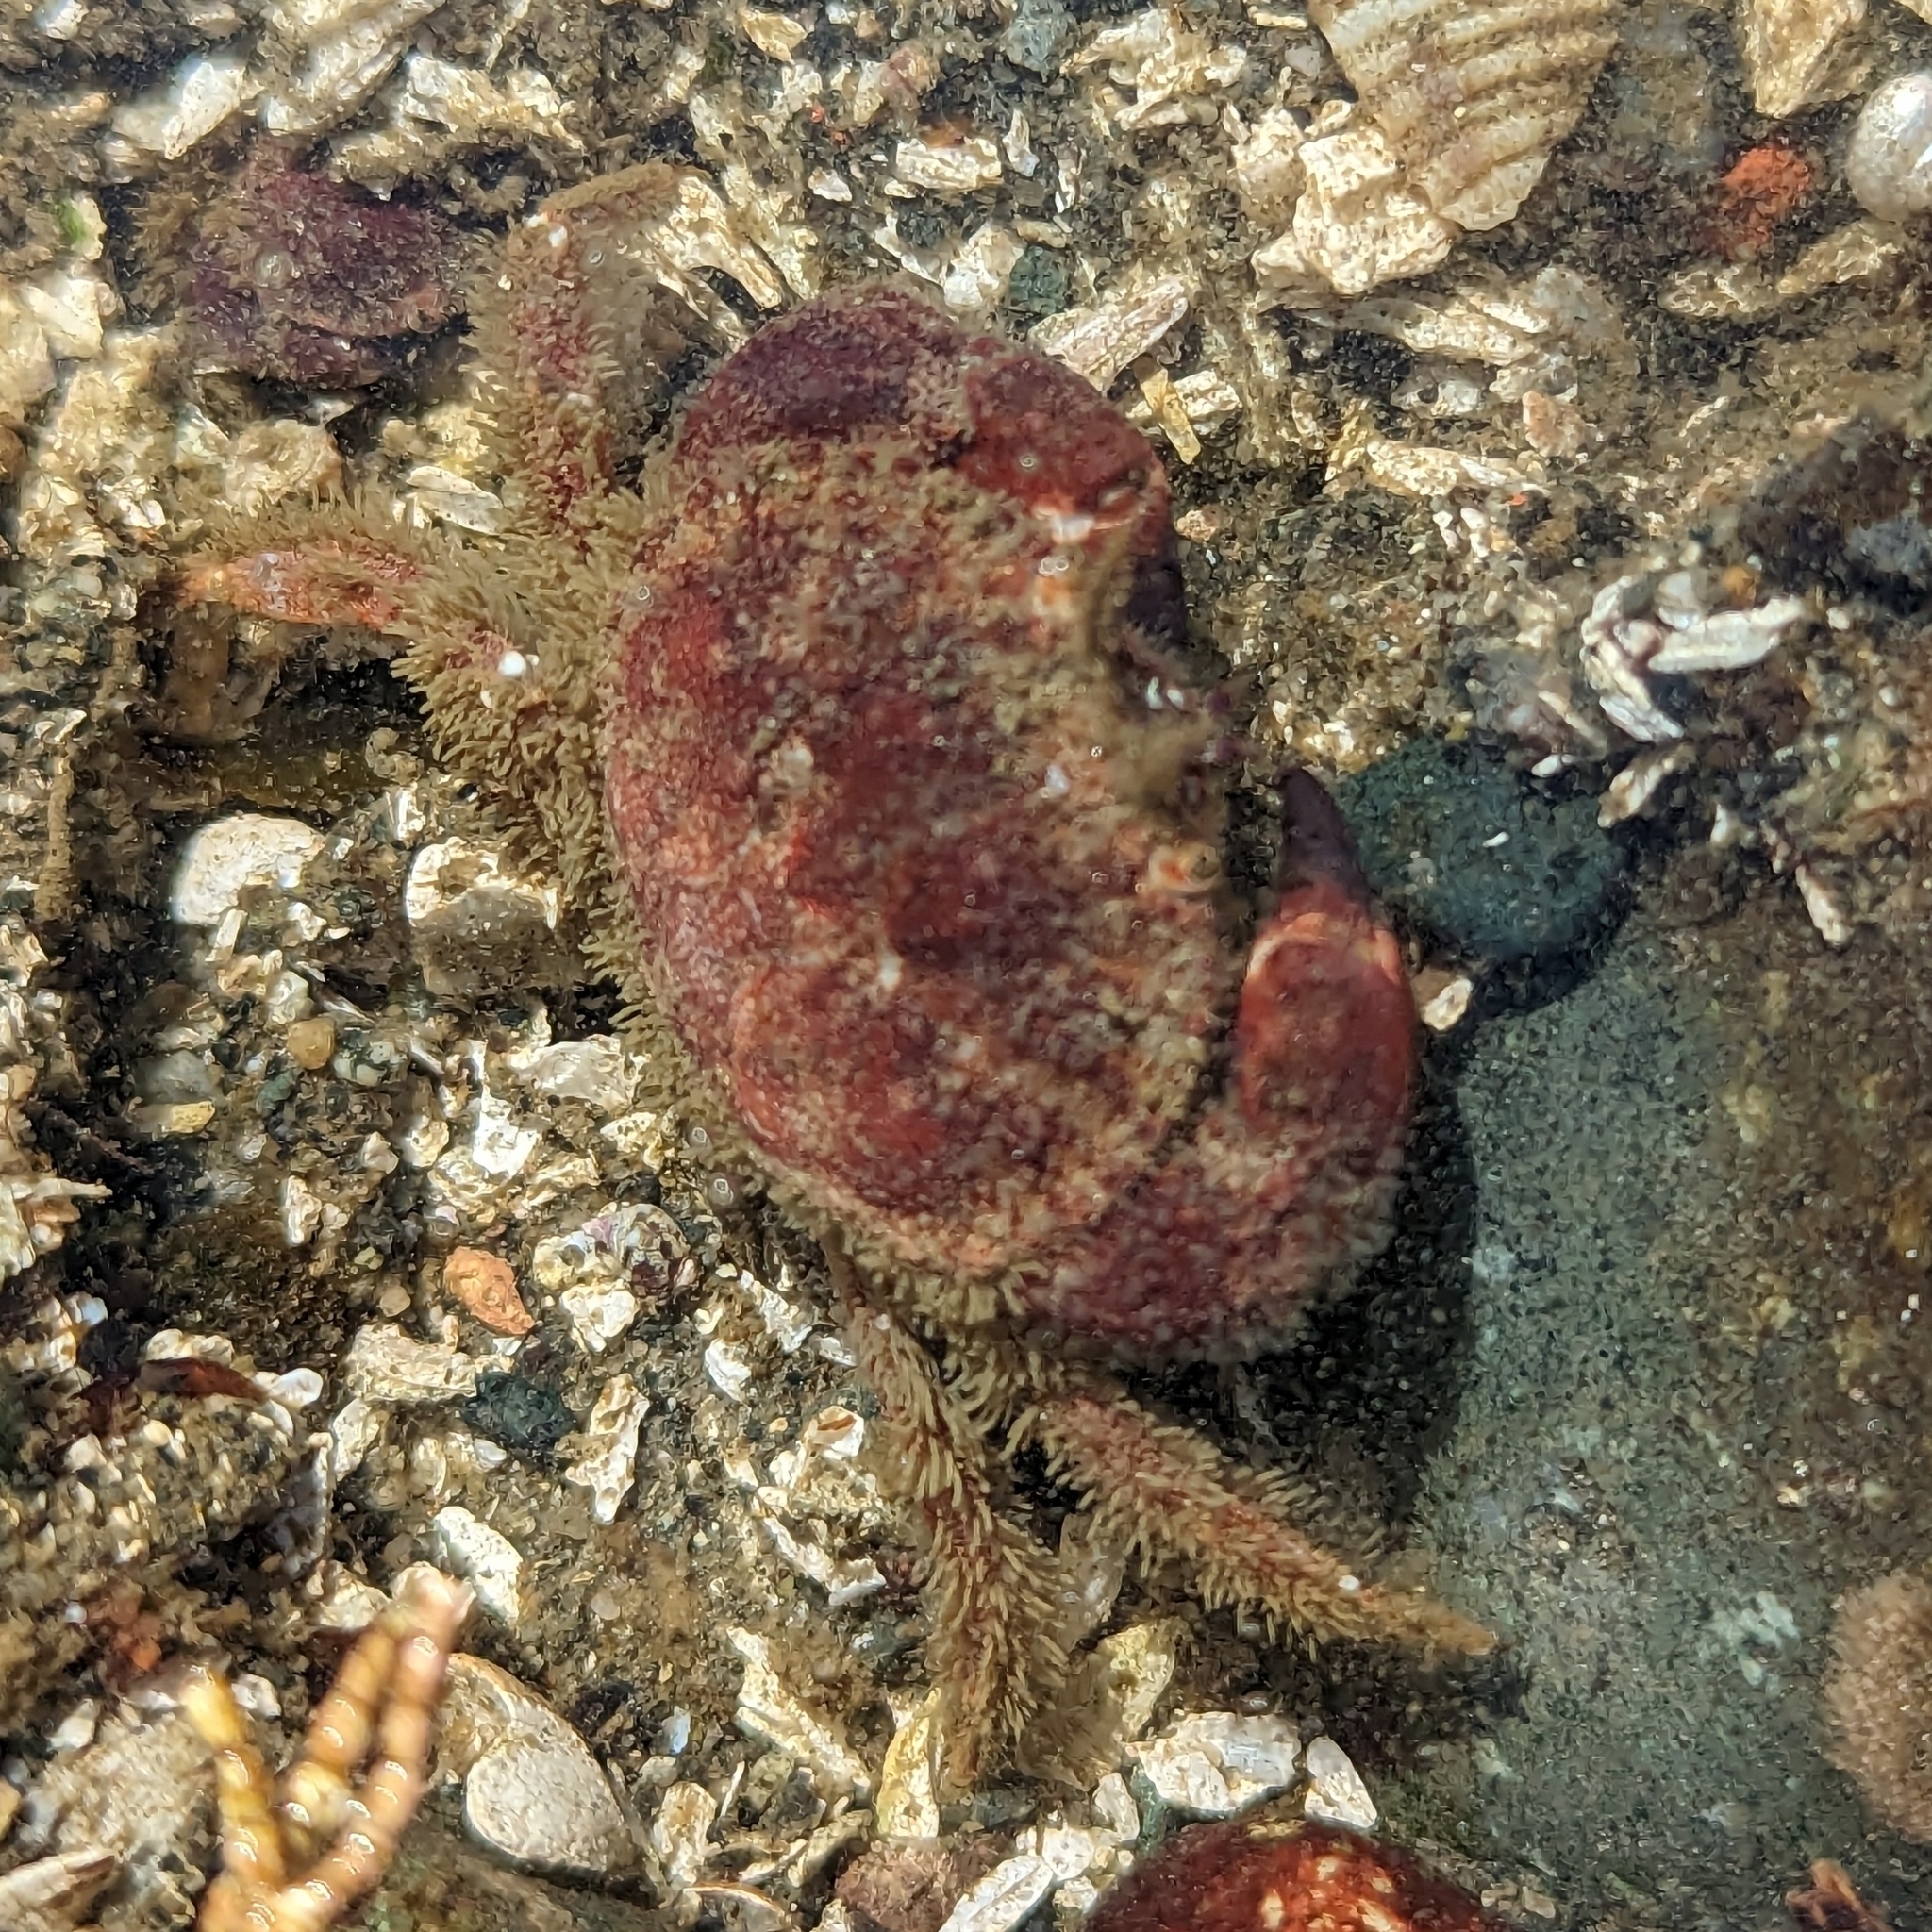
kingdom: Animalia
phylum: Arthropoda
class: Malacostraca
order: Decapoda
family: Cancridae
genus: Glebocarcinus
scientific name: Glebocarcinus oregonensis
